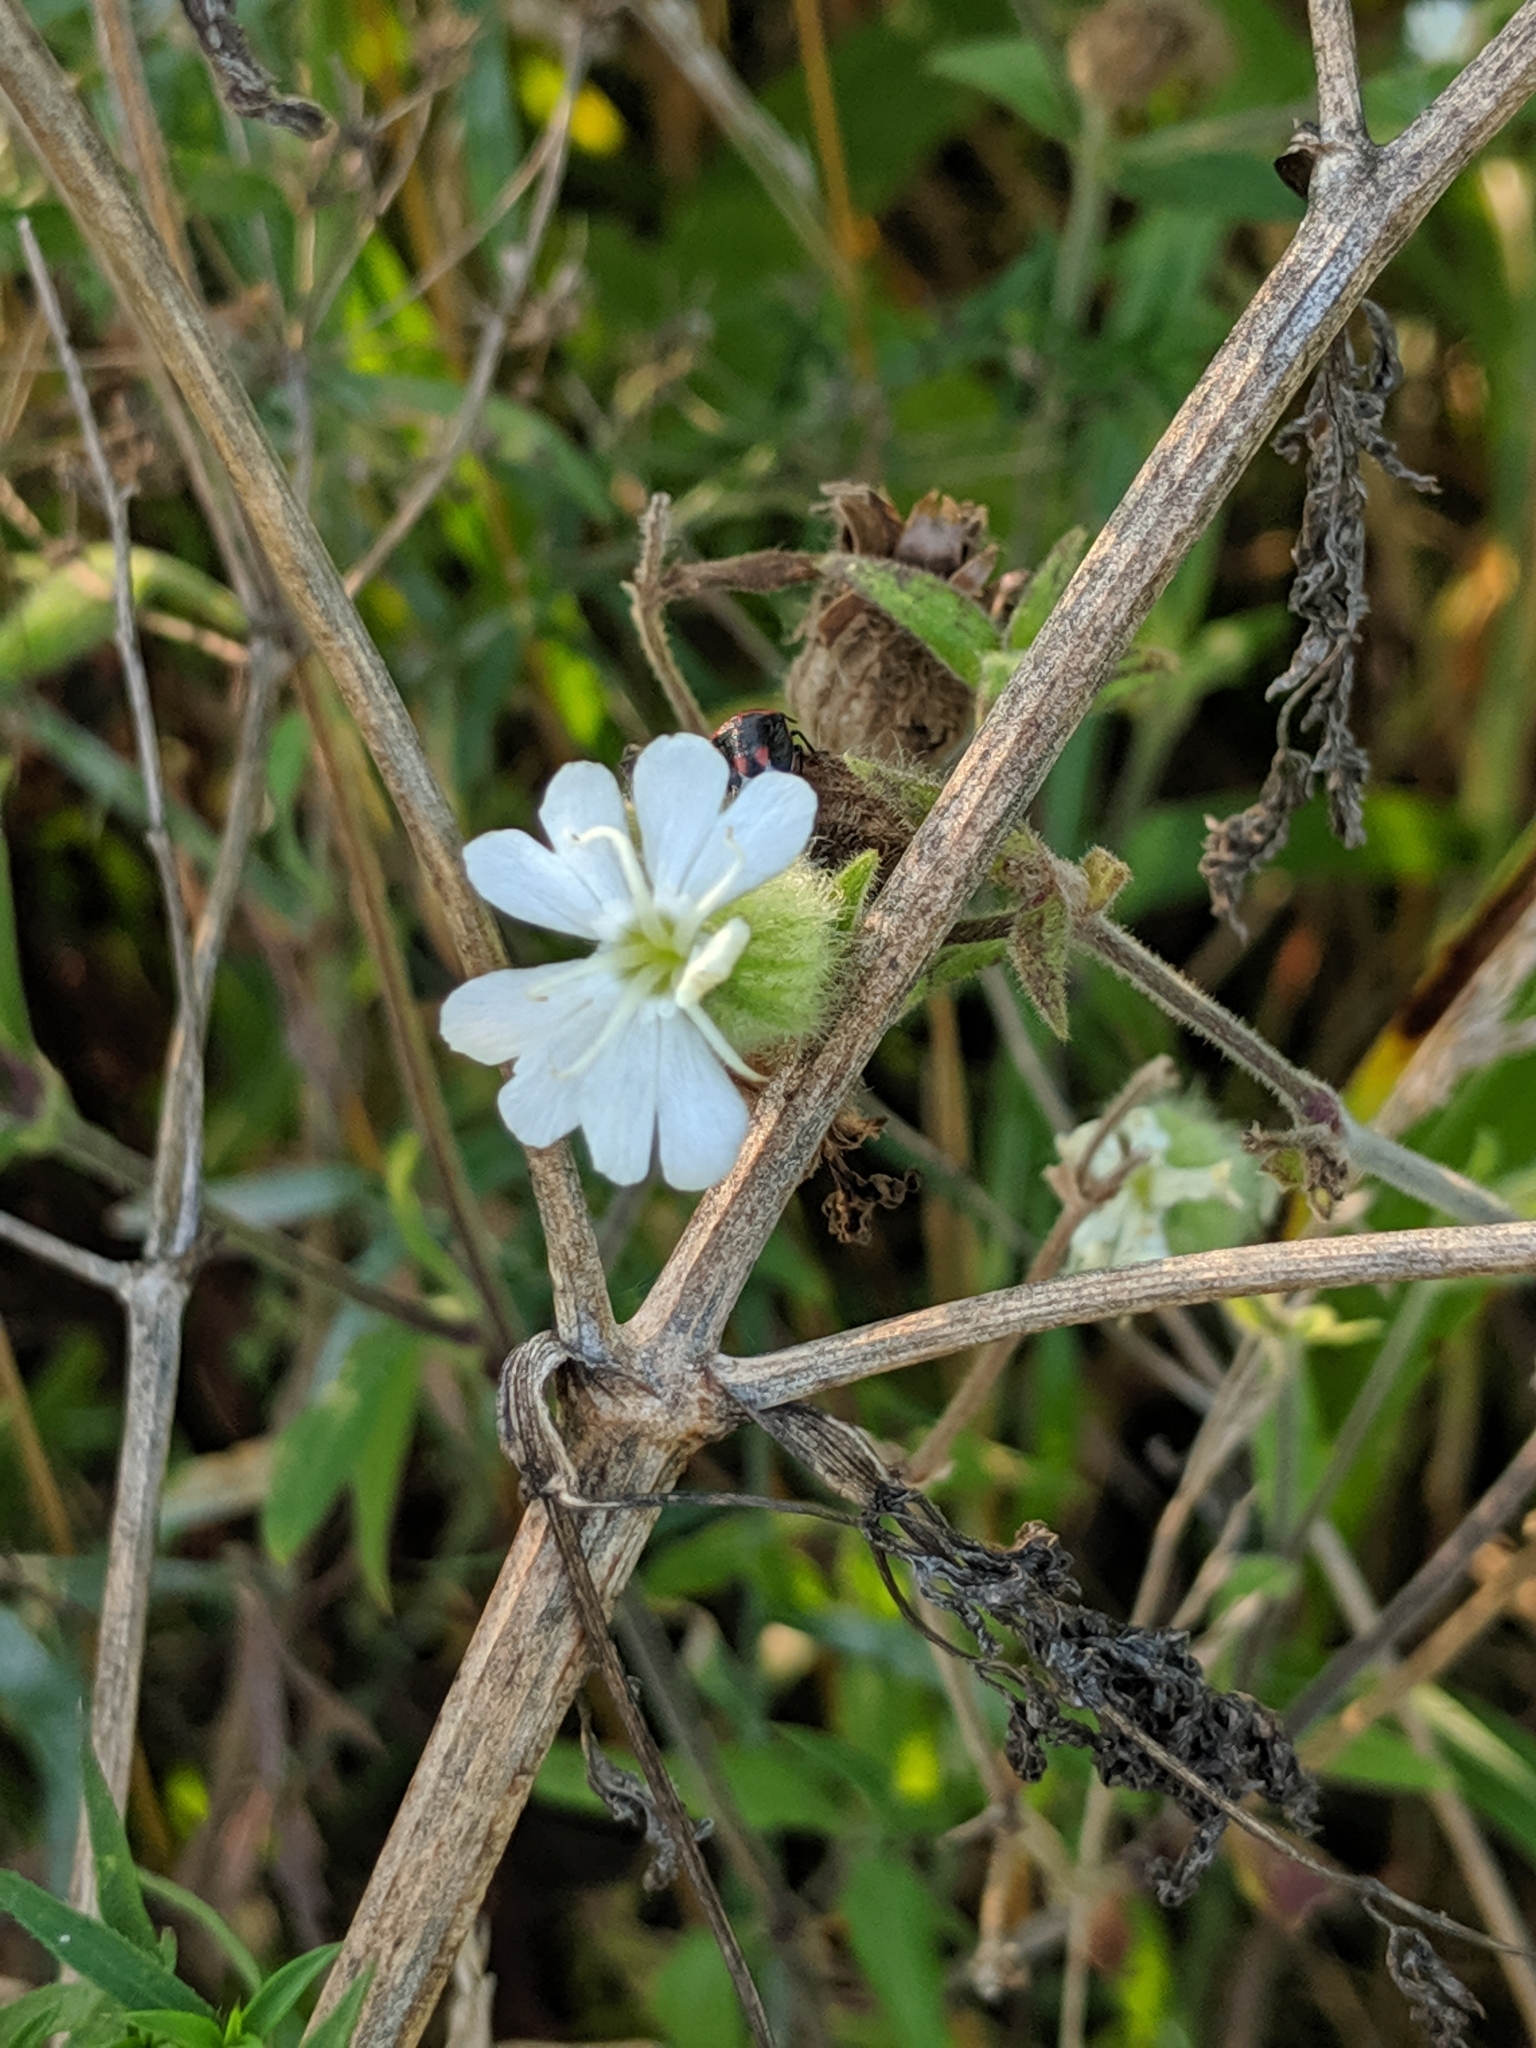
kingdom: Plantae
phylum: Tracheophyta
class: Magnoliopsida
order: Caryophyllales
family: Caryophyllaceae
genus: Silene
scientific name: Silene latifolia
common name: White campion
